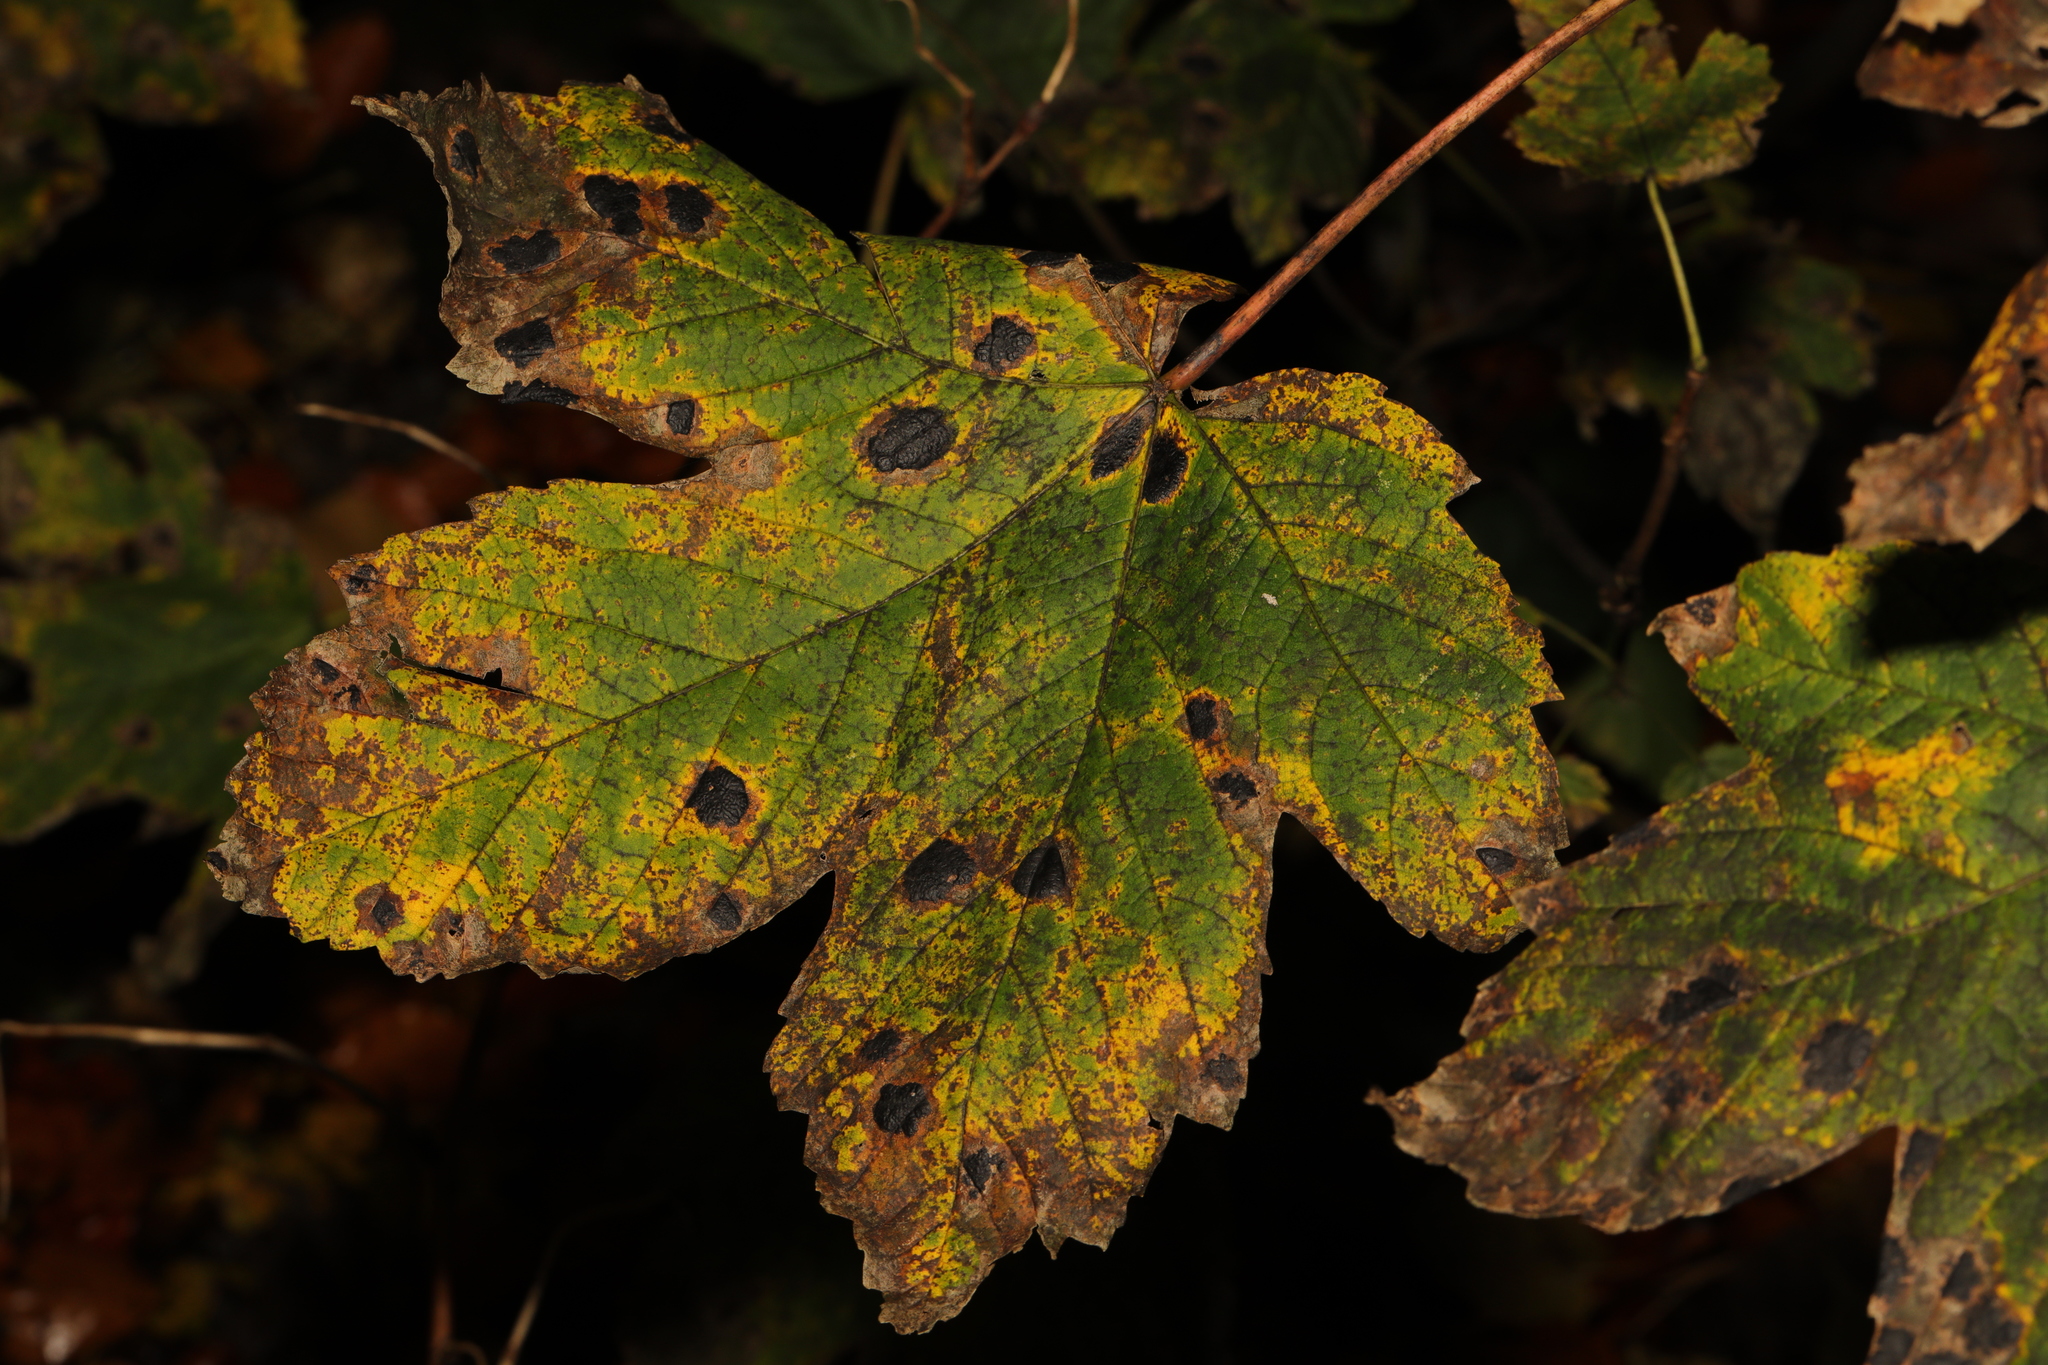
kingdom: Fungi
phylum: Ascomycota
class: Leotiomycetes
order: Rhytismatales
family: Rhytismataceae
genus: Rhytisma
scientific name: Rhytisma acerinum
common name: European tar spot
